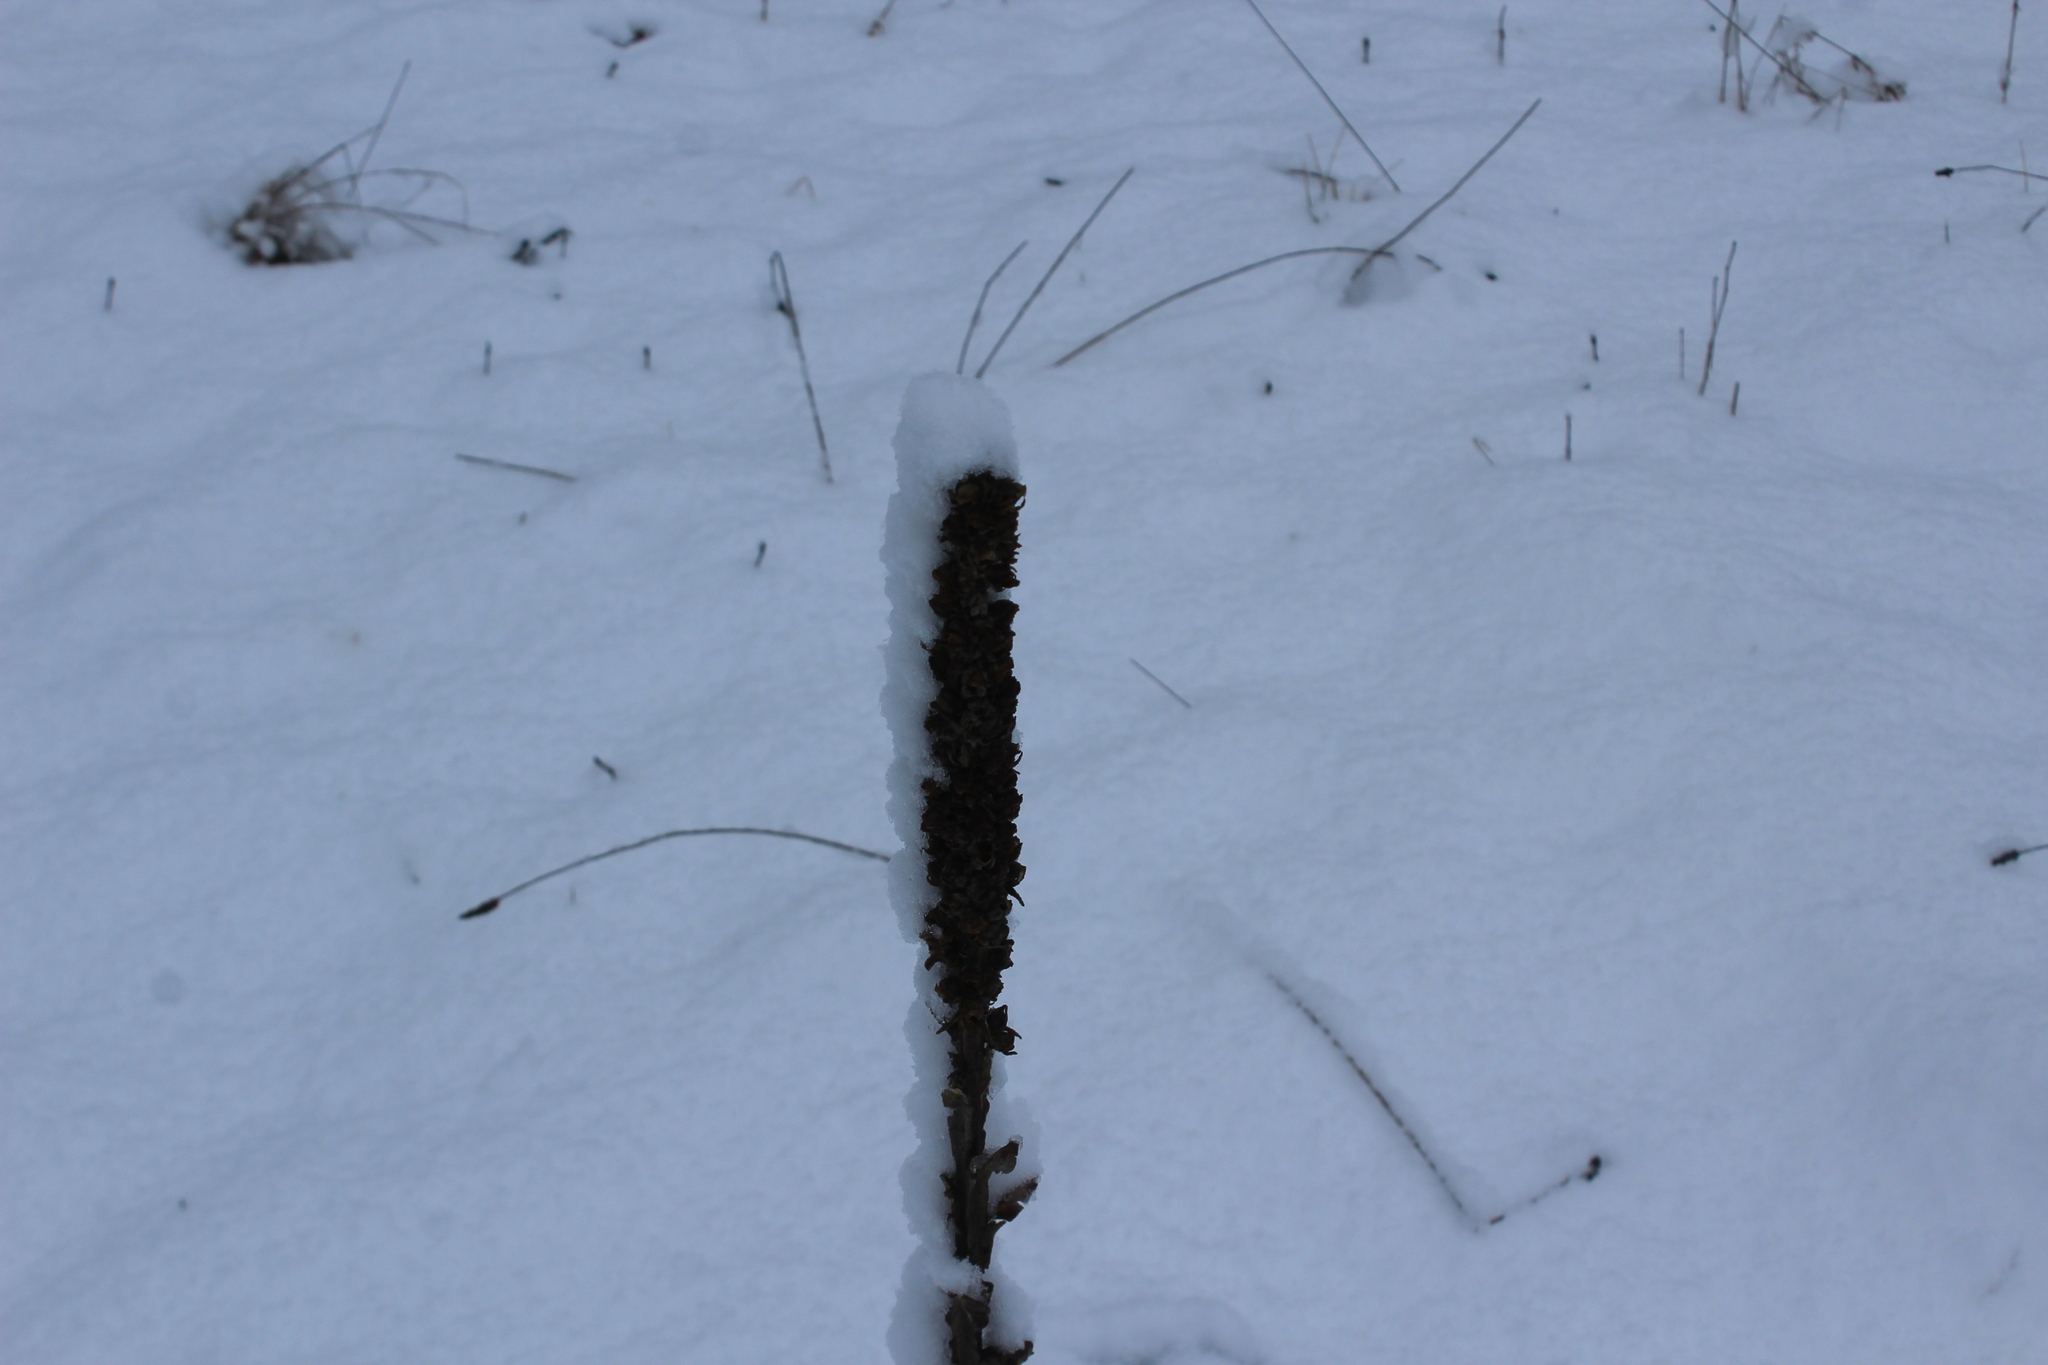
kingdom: Plantae
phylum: Tracheophyta
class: Magnoliopsida
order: Lamiales
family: Scrophulariaceae
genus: Verbascum
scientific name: Verbascum thapsus
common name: Common mullein
